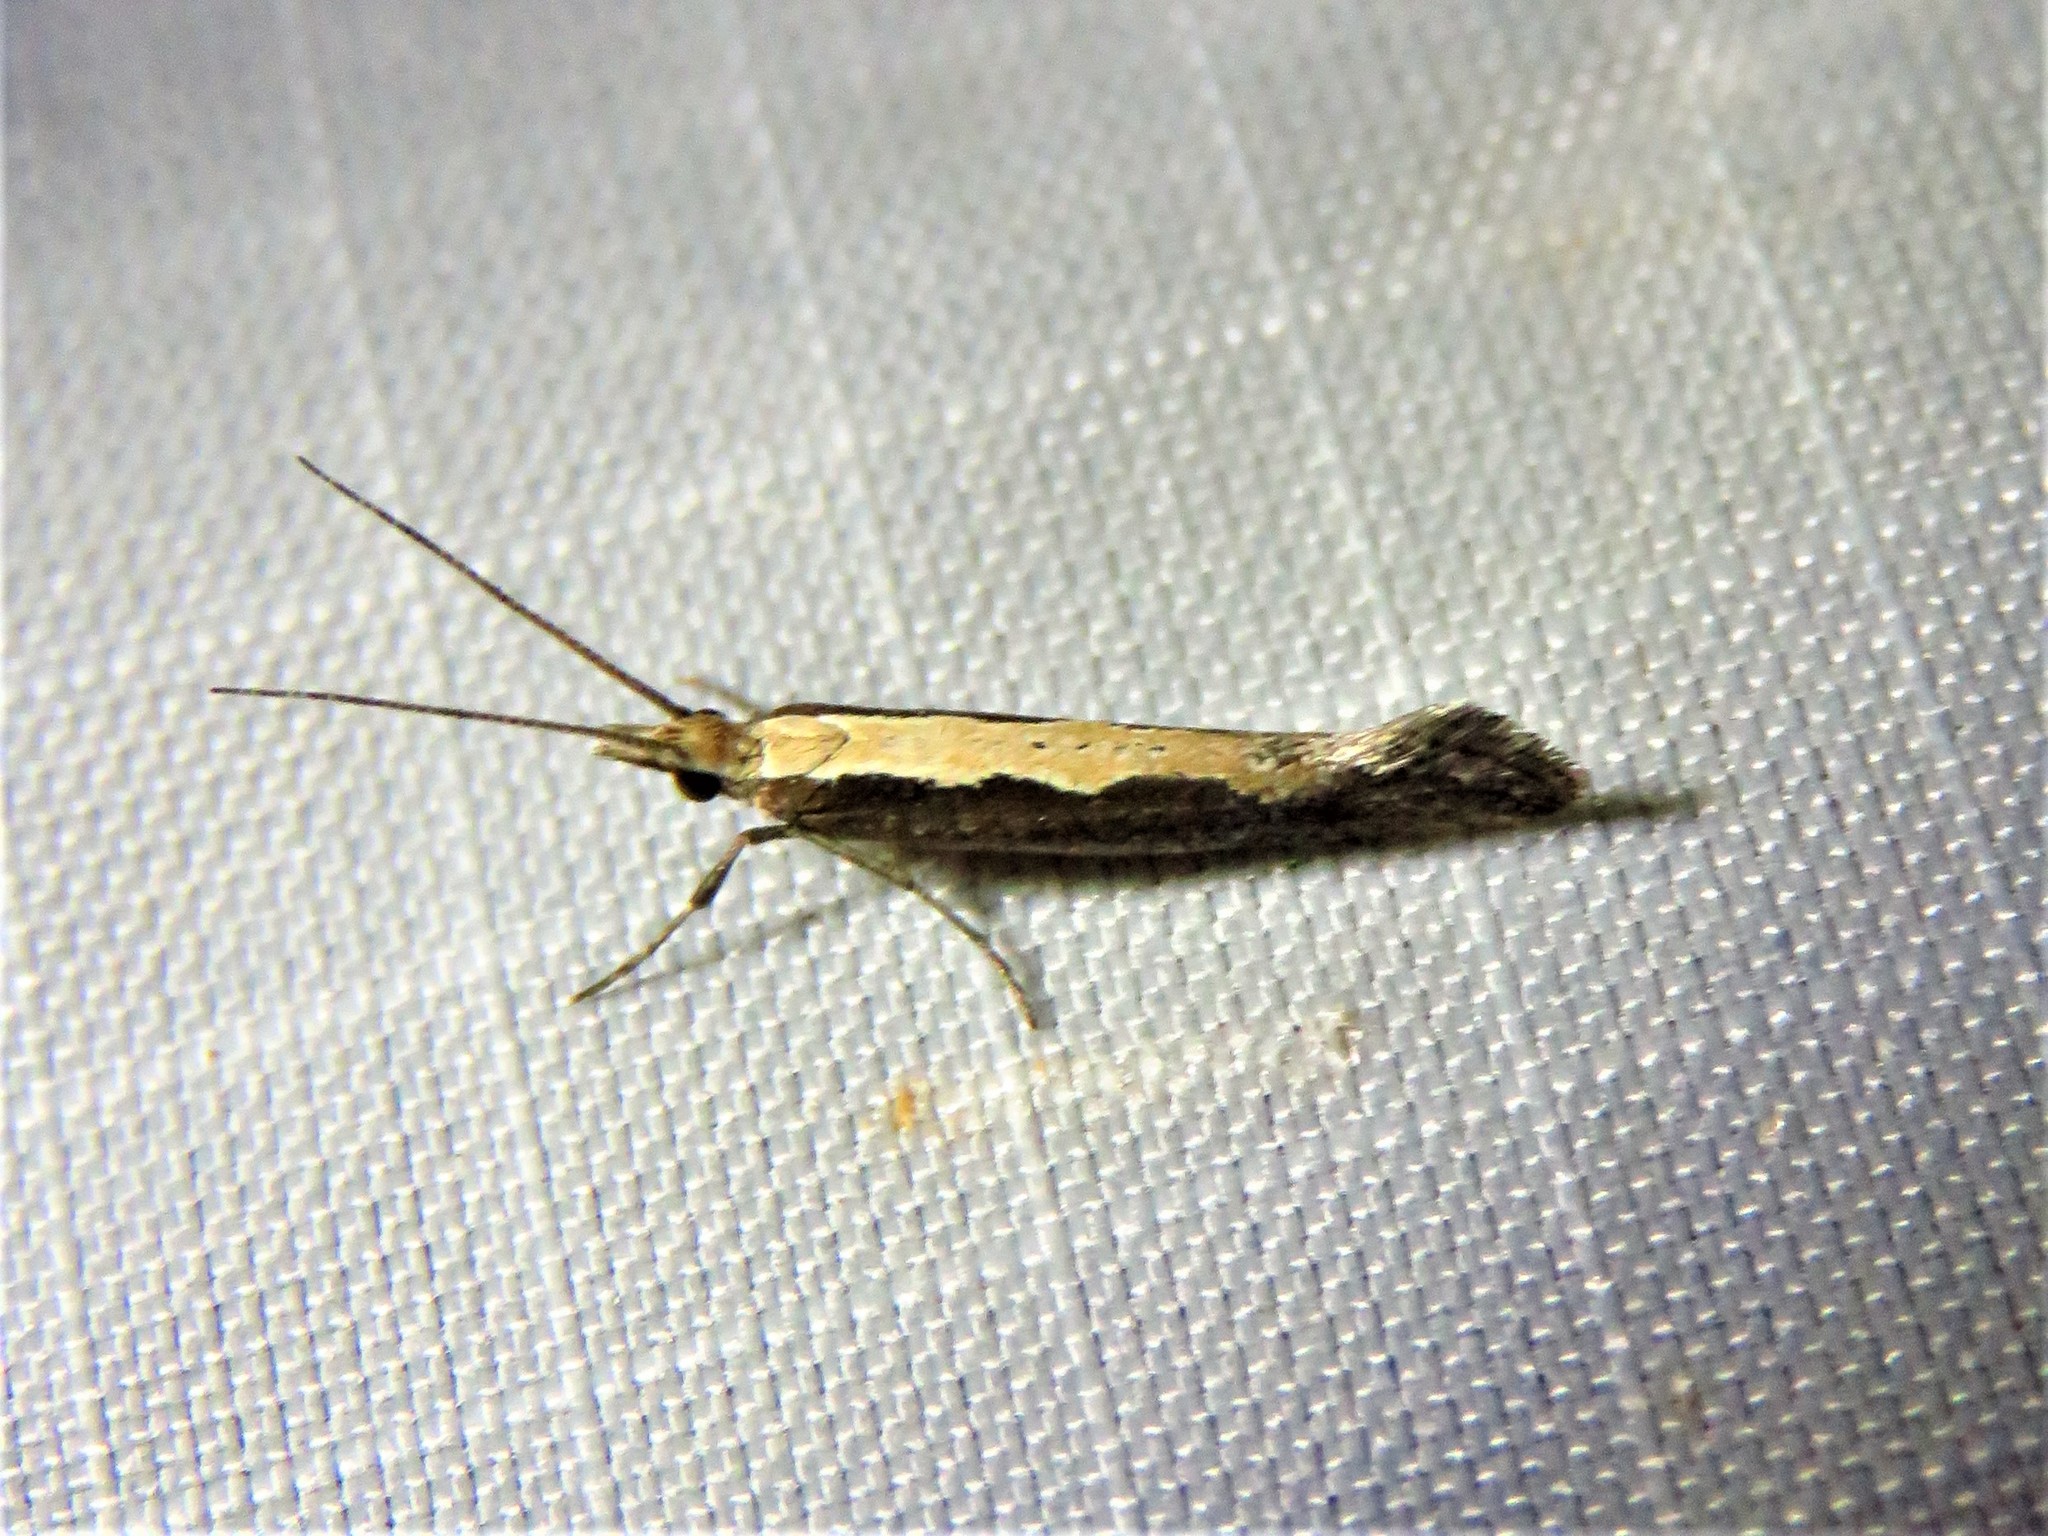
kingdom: Animalia
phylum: Arthropoda
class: Insecta
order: Lepidoptera
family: Plutellidae
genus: Plutella
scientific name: Plutella xylostella
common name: Diamond-back moth
